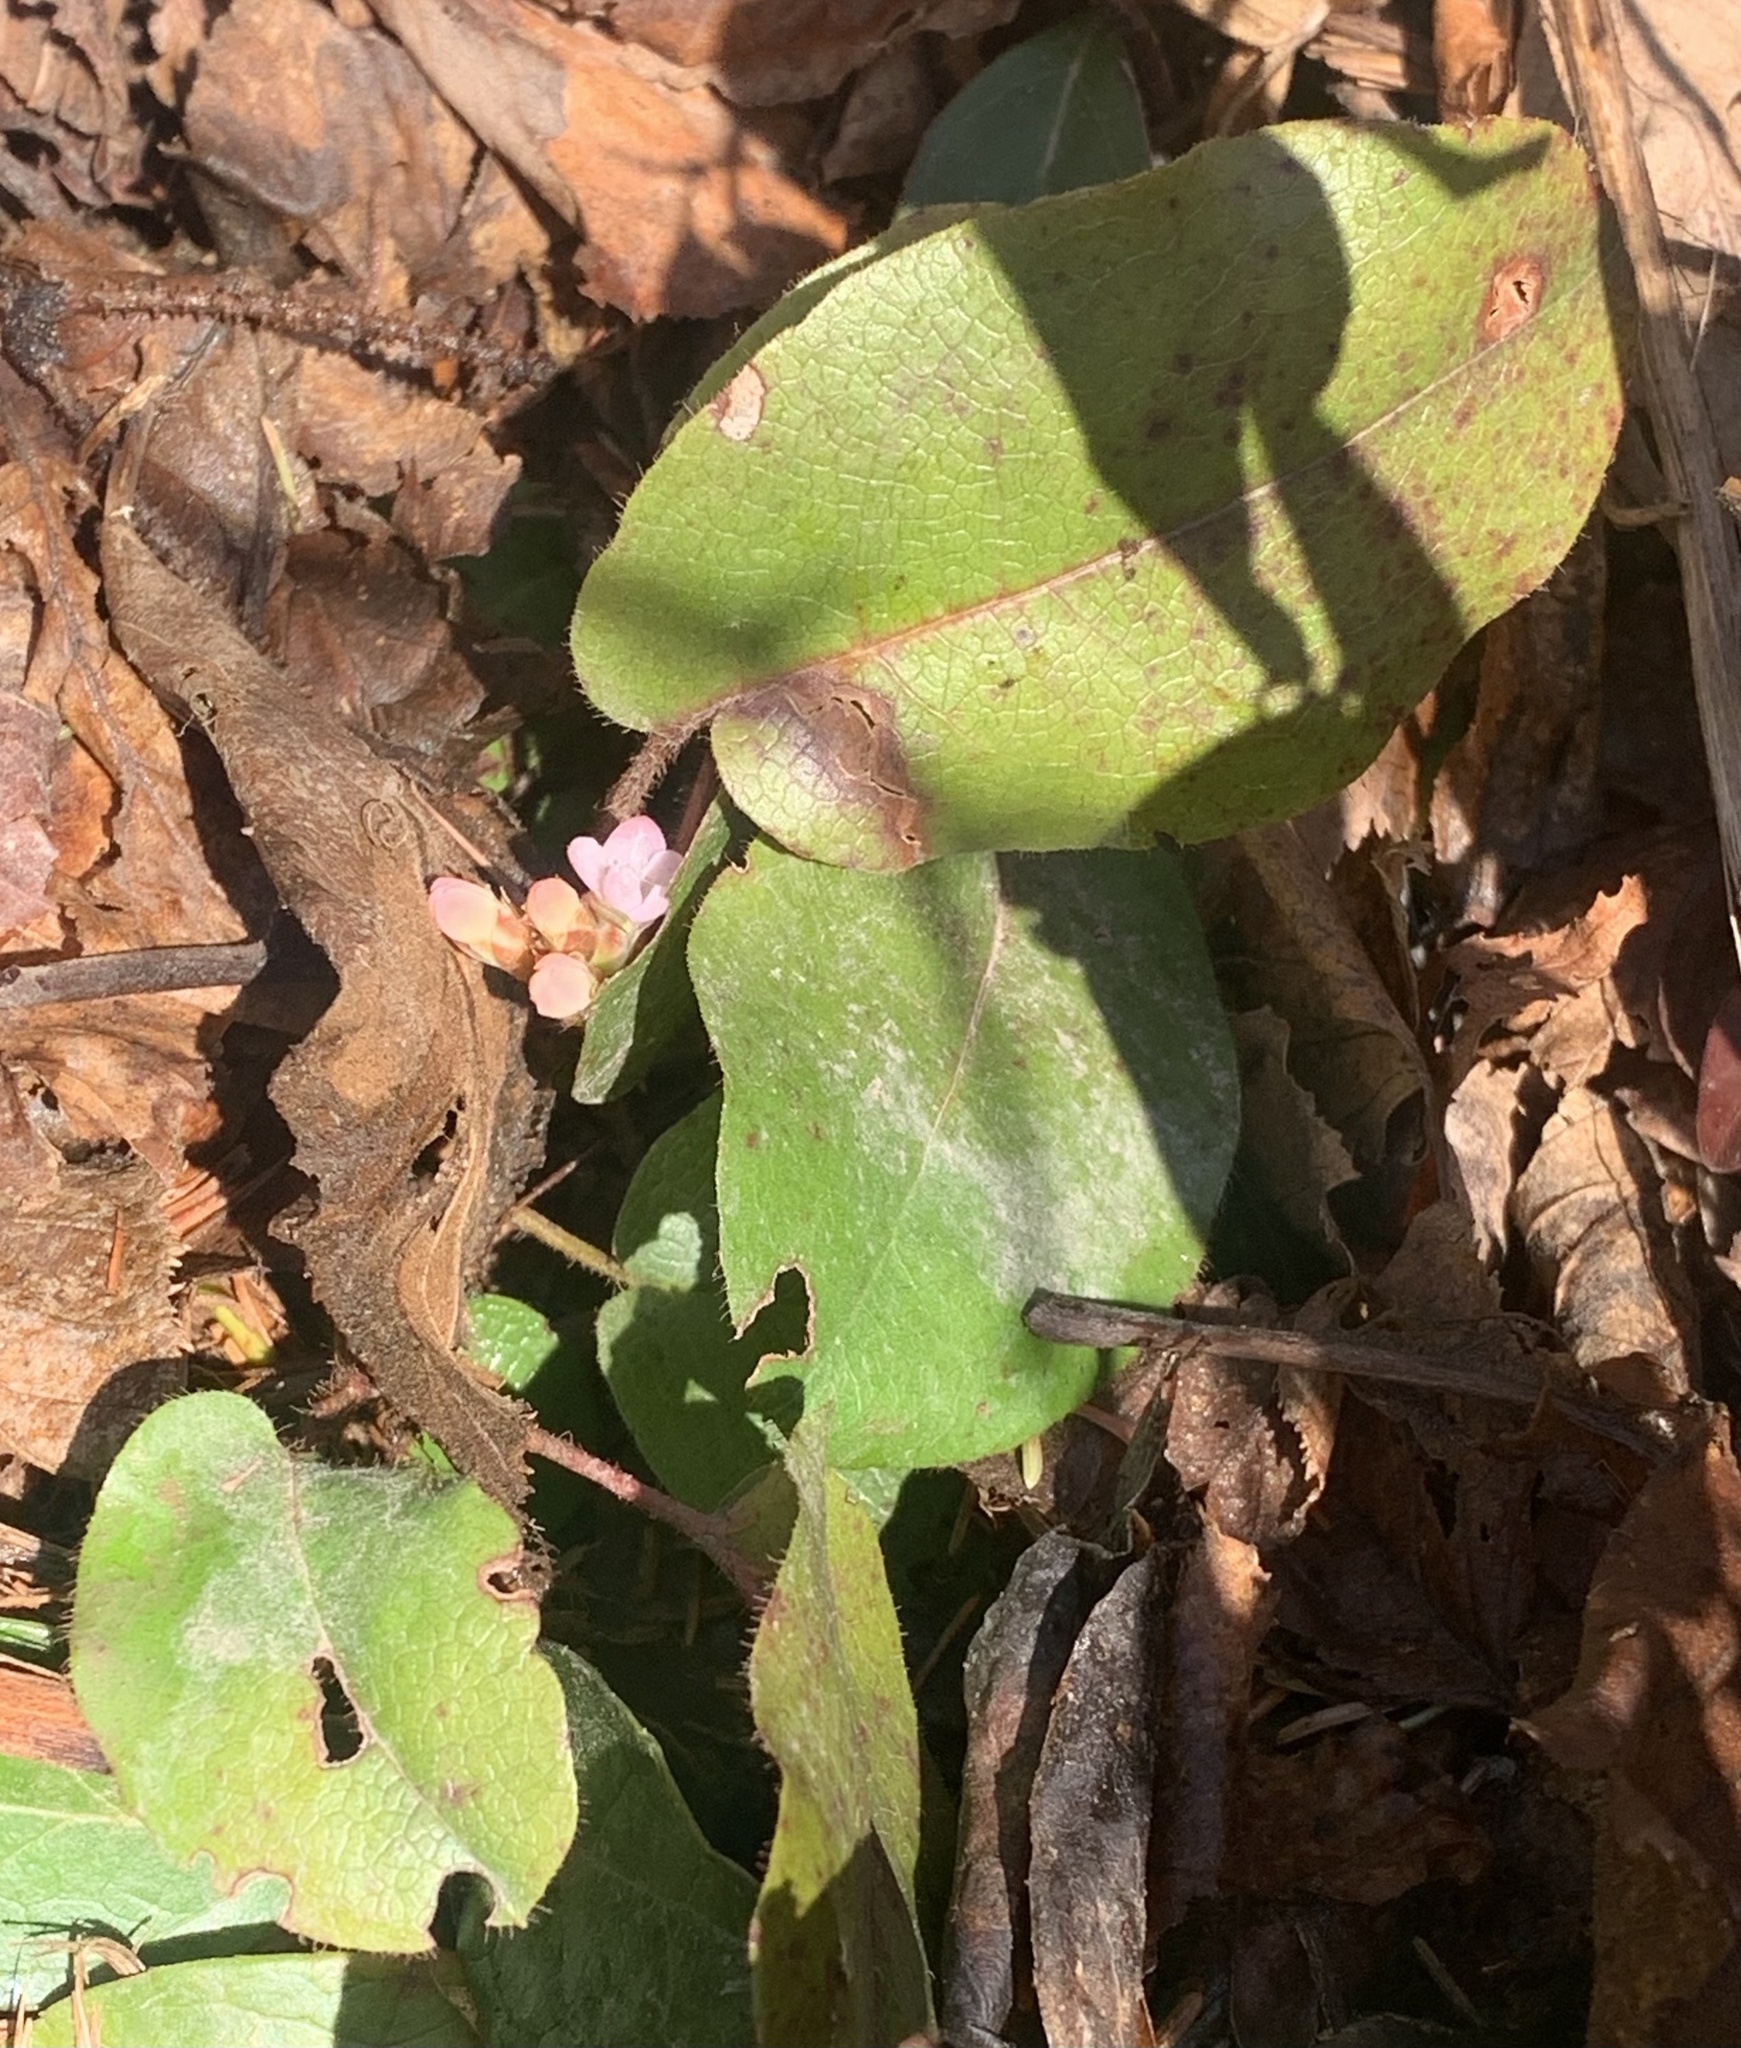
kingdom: Plantae
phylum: Tracheophyta
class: Magnoliopsida
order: Ericales
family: Ericaceae
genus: Epigaea
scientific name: Epigaea repens
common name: Gravelroot
